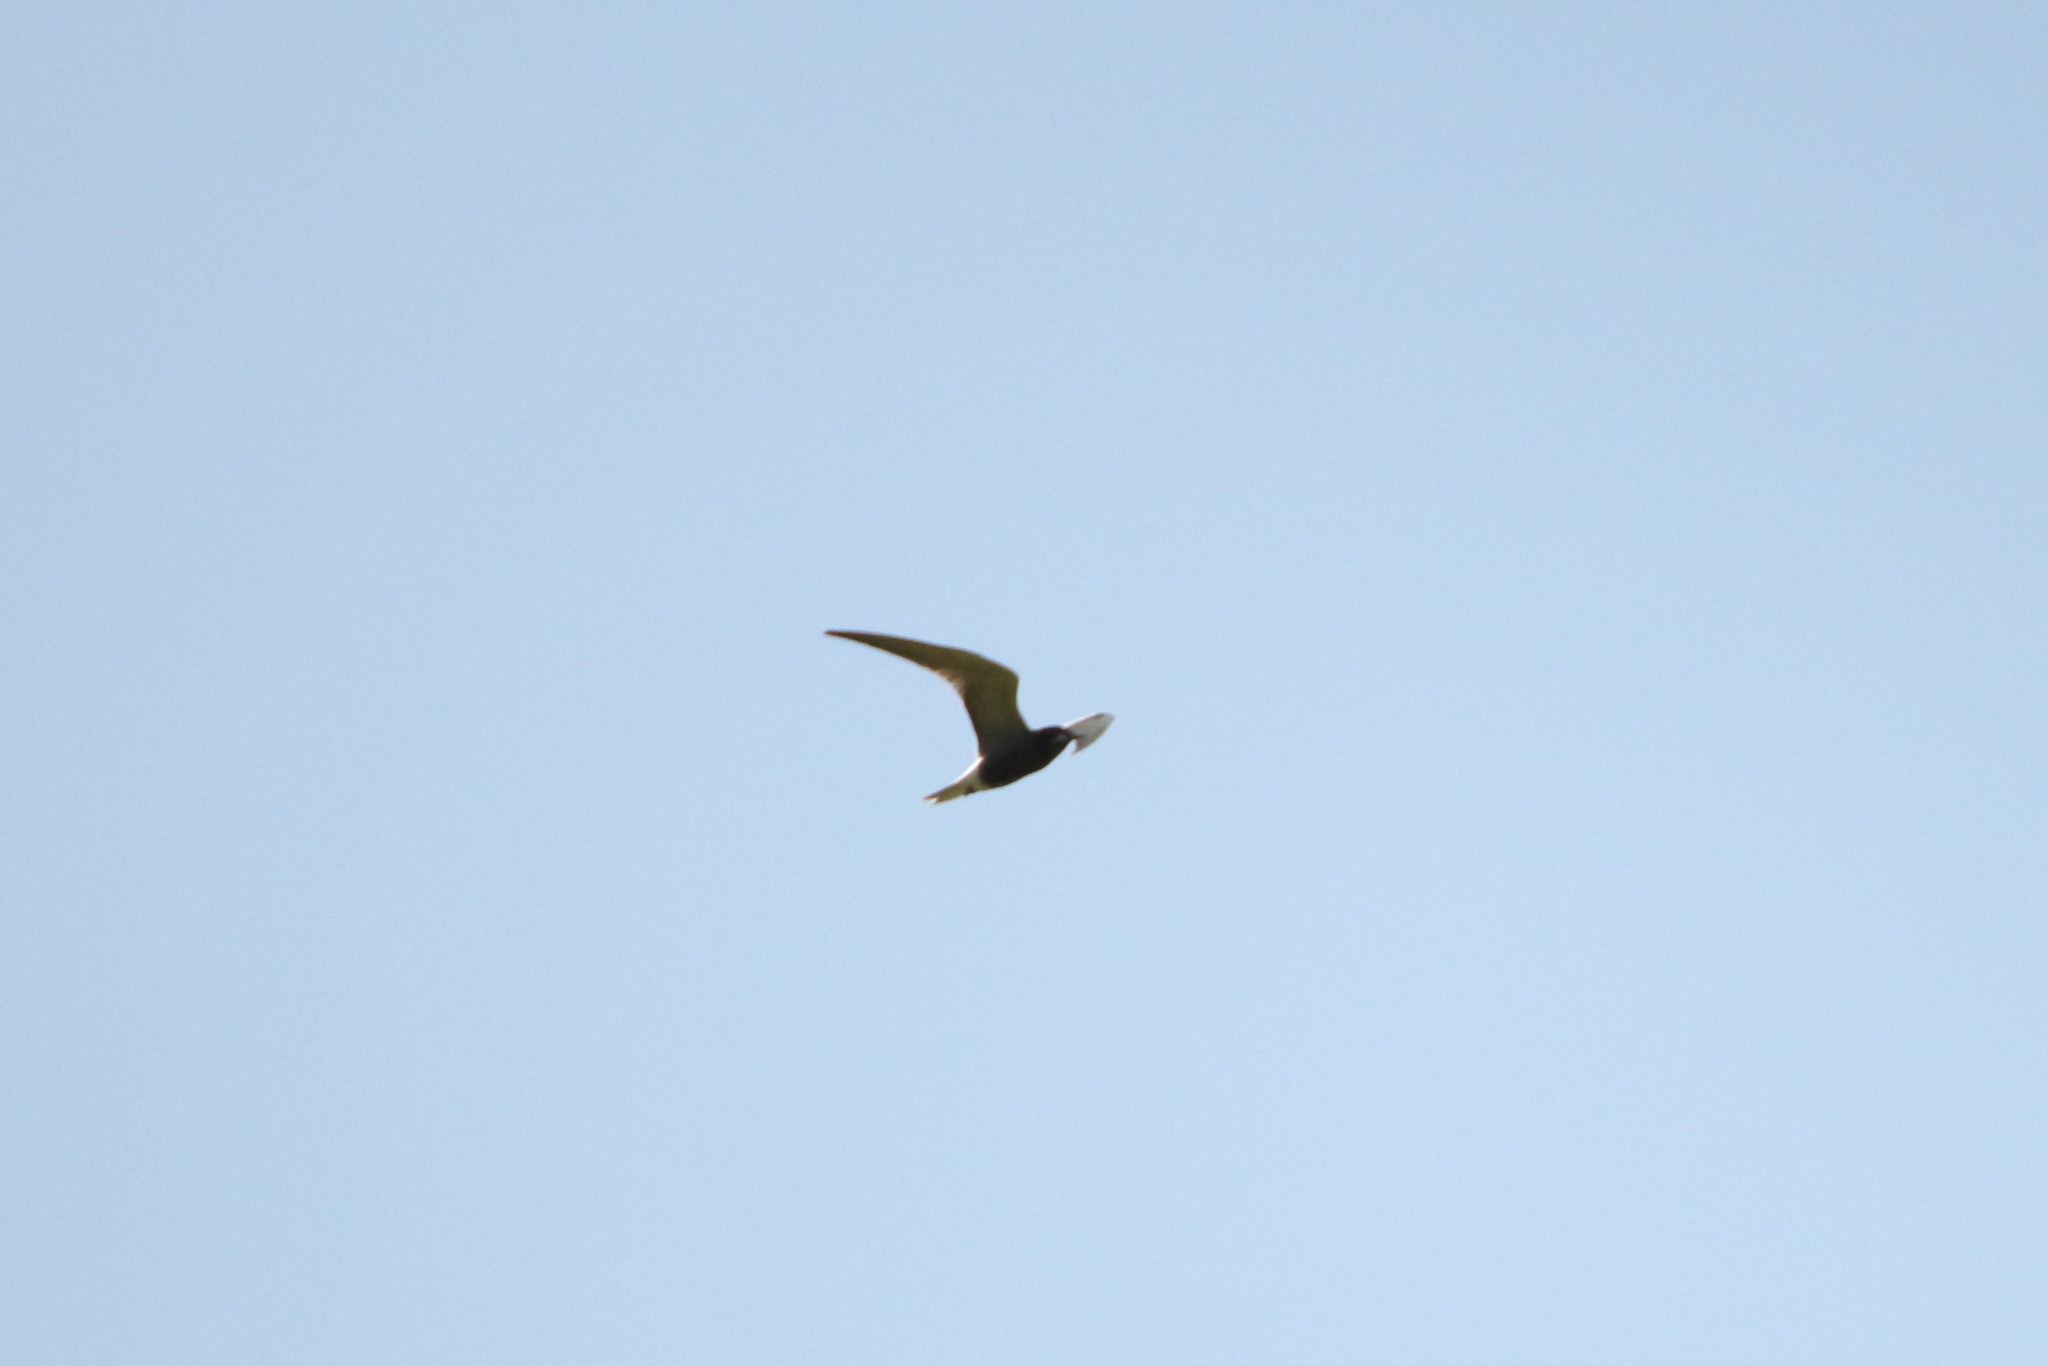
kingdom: Animalia
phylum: Chordata
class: Aves
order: Charadriiformes
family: Laridae
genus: Chlidonias
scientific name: Chlidonias niger
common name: Black tern
